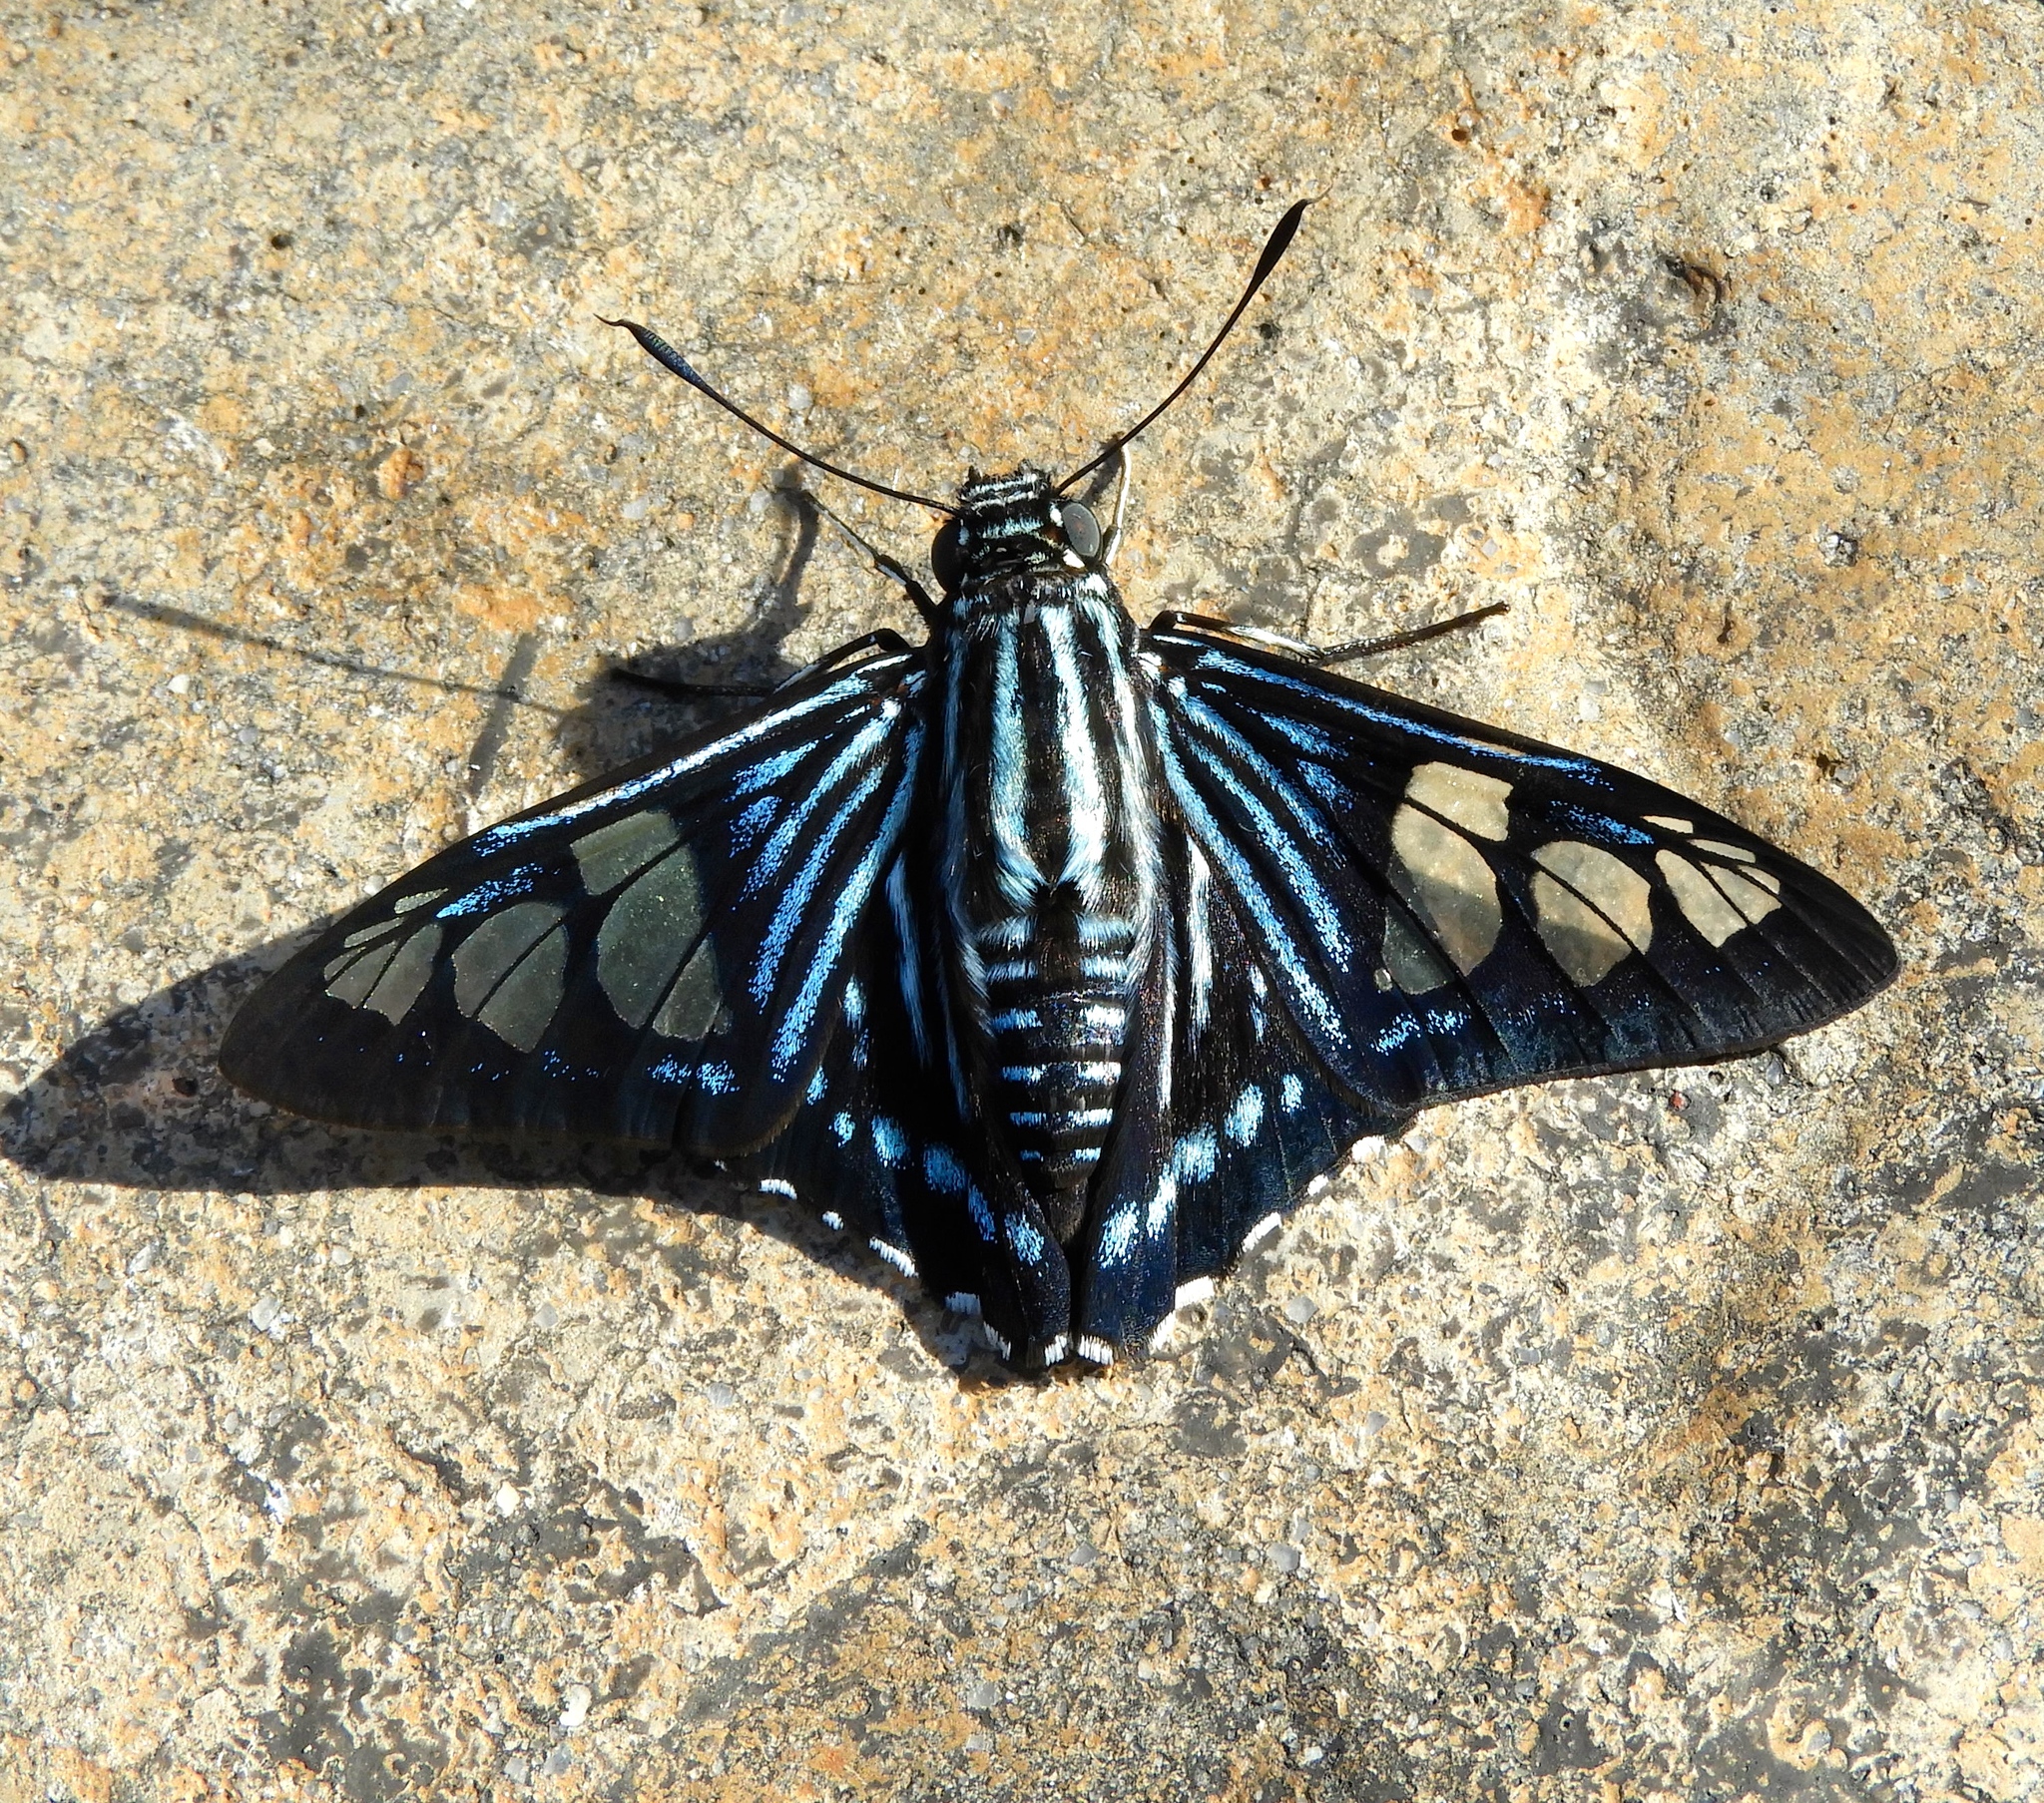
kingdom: Animalia
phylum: Arthropoda
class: Insecta
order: Lepidoptera
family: Hesperiidae
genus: Phocides
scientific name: Phocides pigmalion
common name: Mangrove skipper
